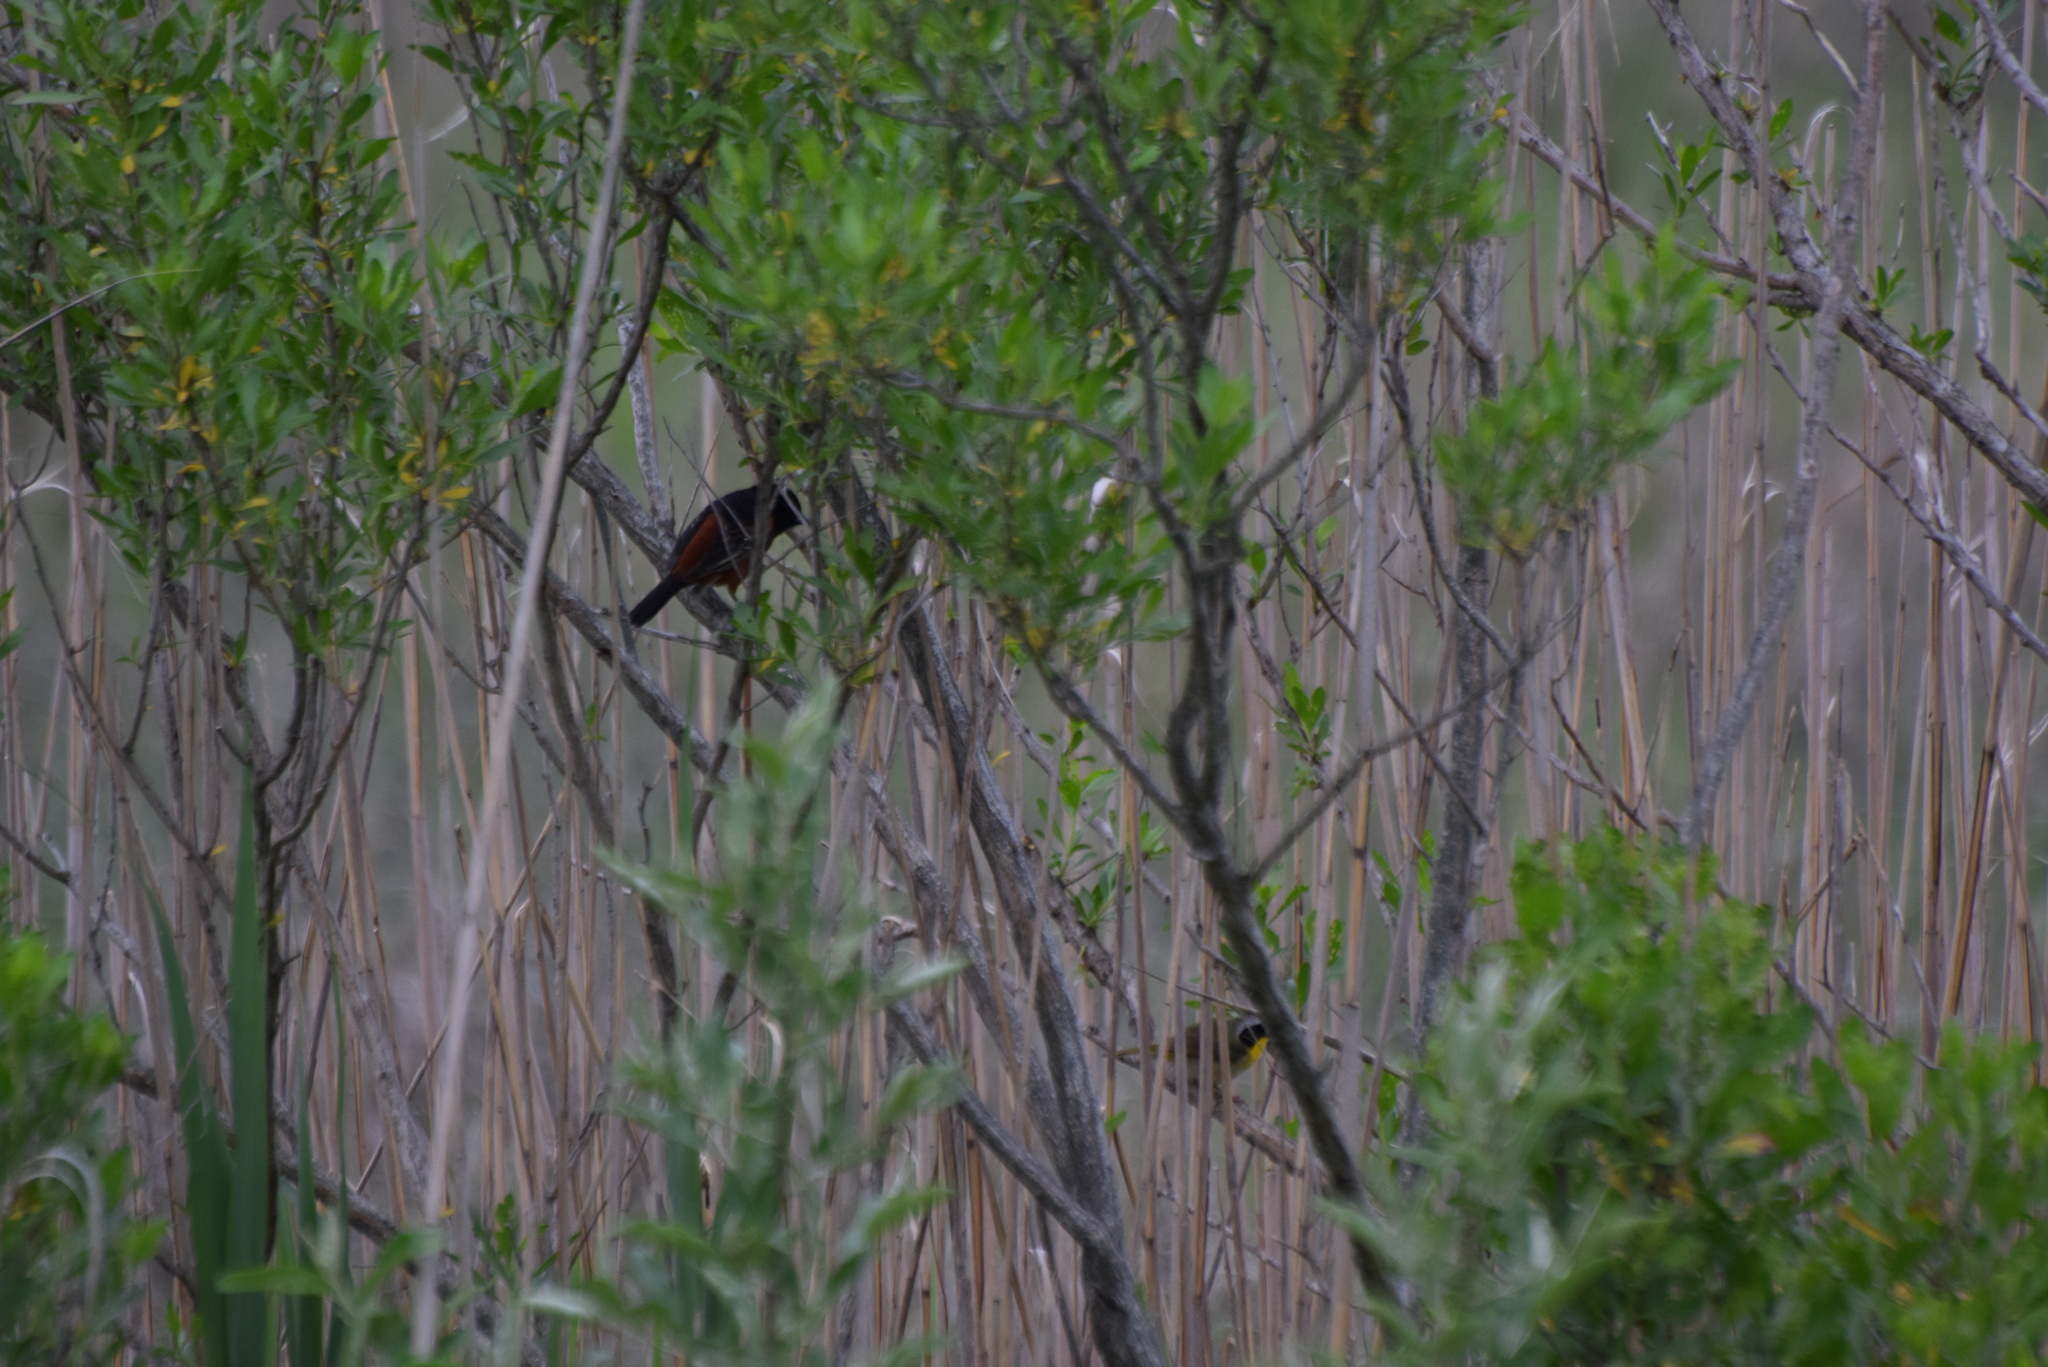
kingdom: Animalia
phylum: Chordata
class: Aves
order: Passeriformes
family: Icteridae
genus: Icterus
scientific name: Icterus spurius
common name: Orchard oriole
